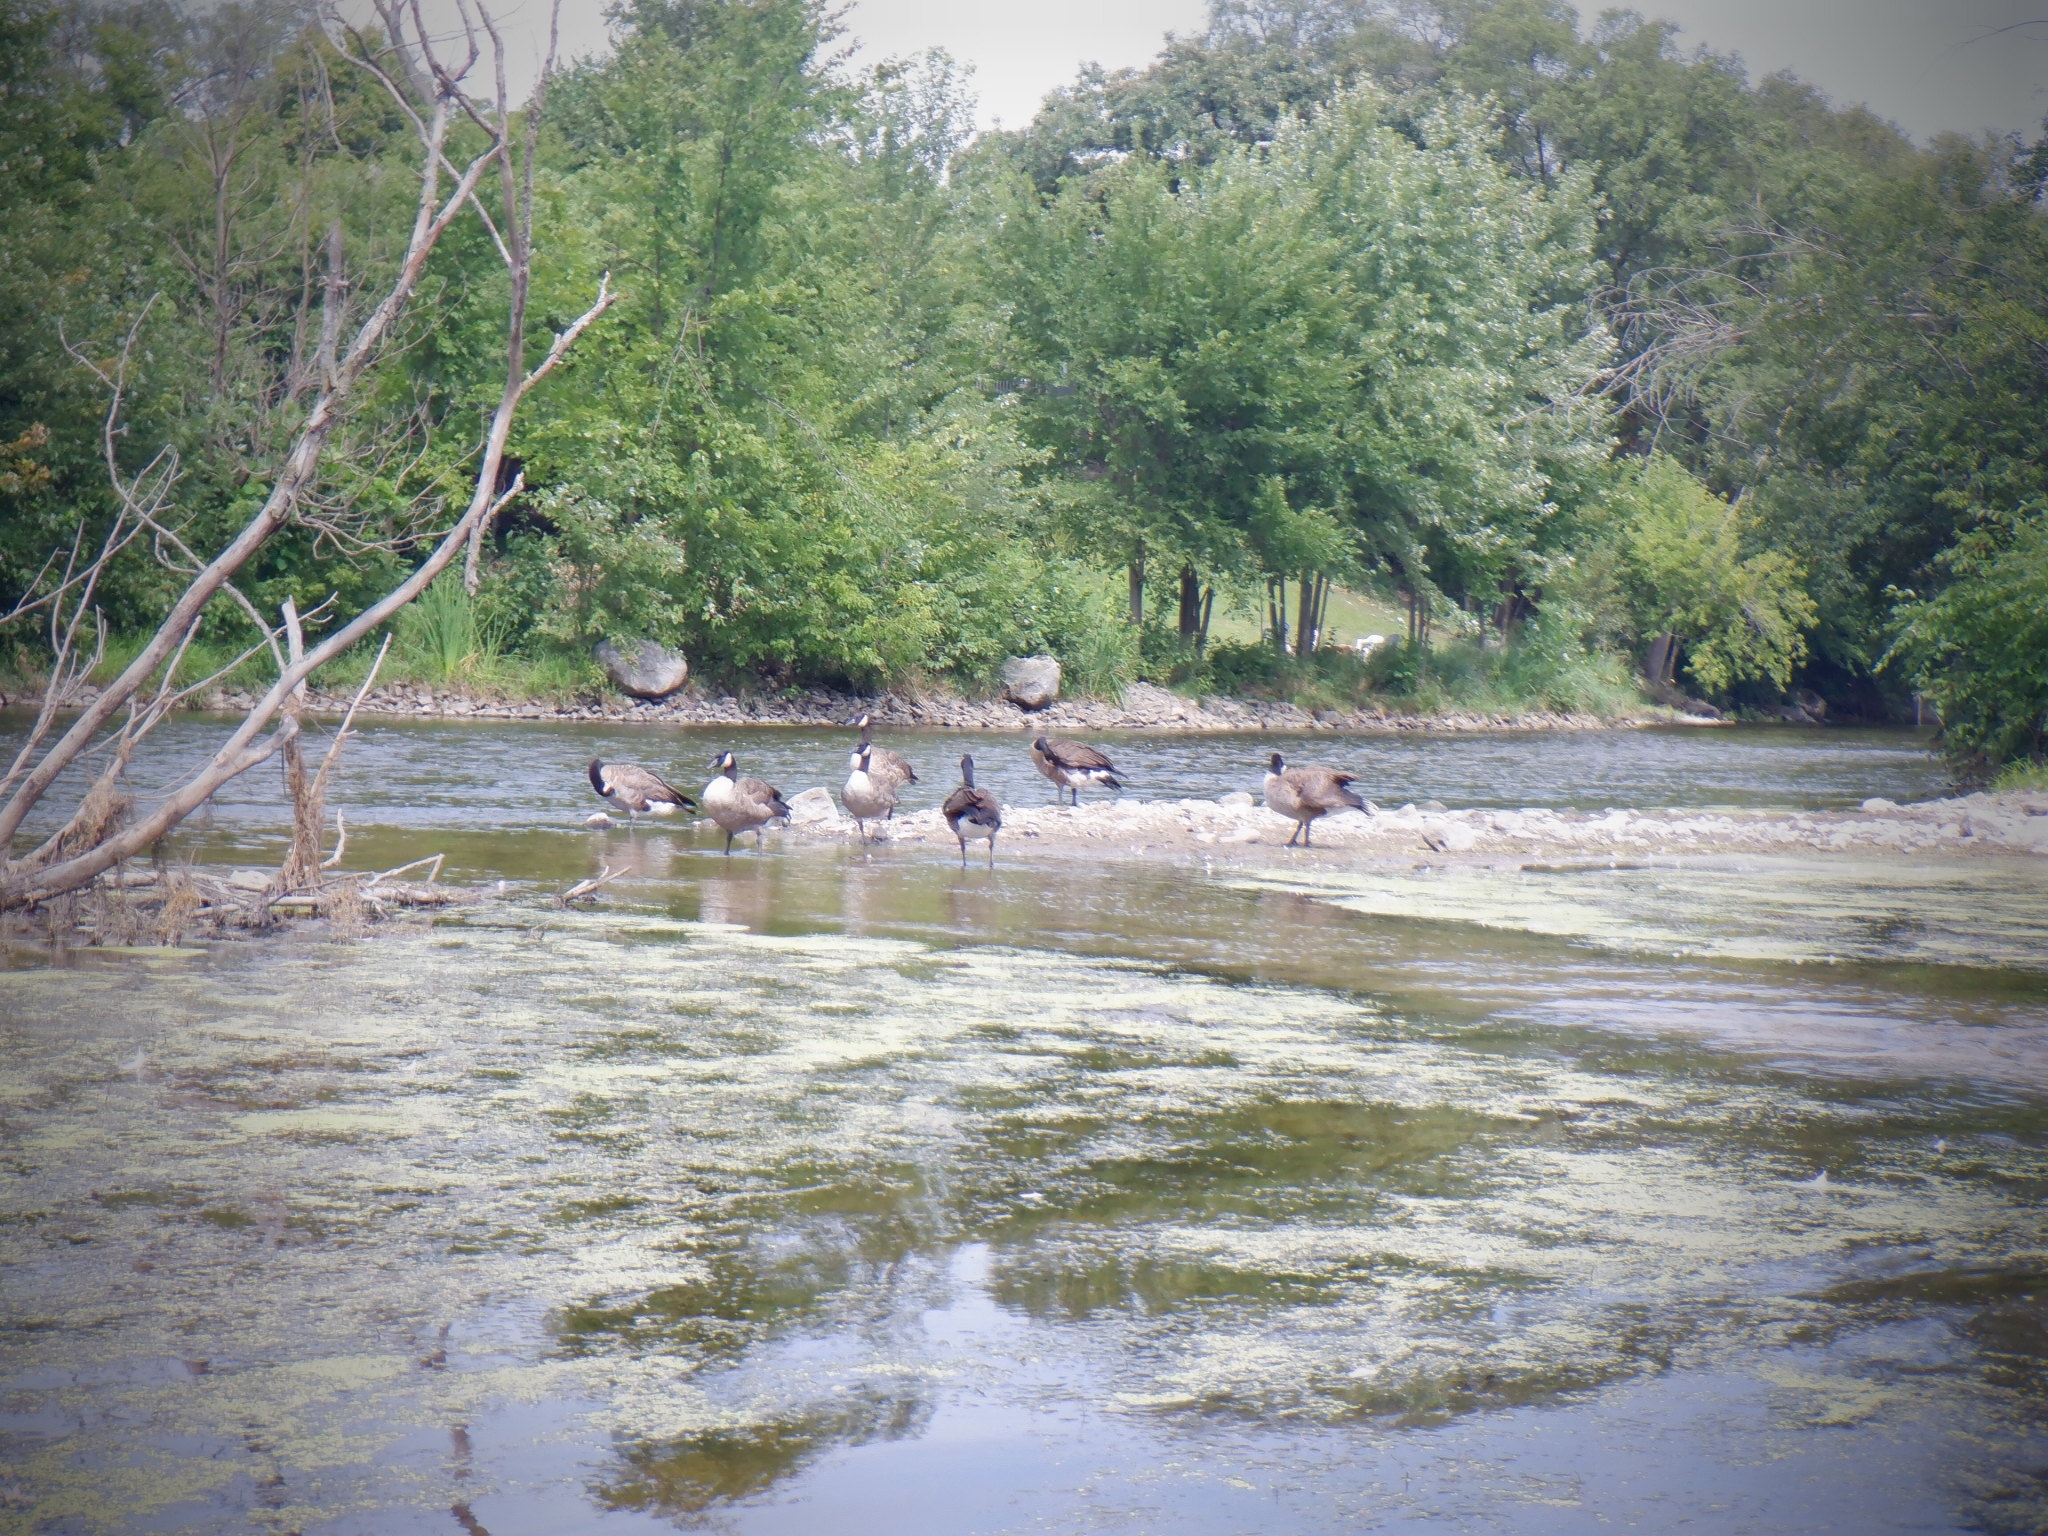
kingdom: Animalia
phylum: Chordata
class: Aves
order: Anseriformes
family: Anatidae
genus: Branta
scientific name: Branta canadensis
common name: Canada goose
